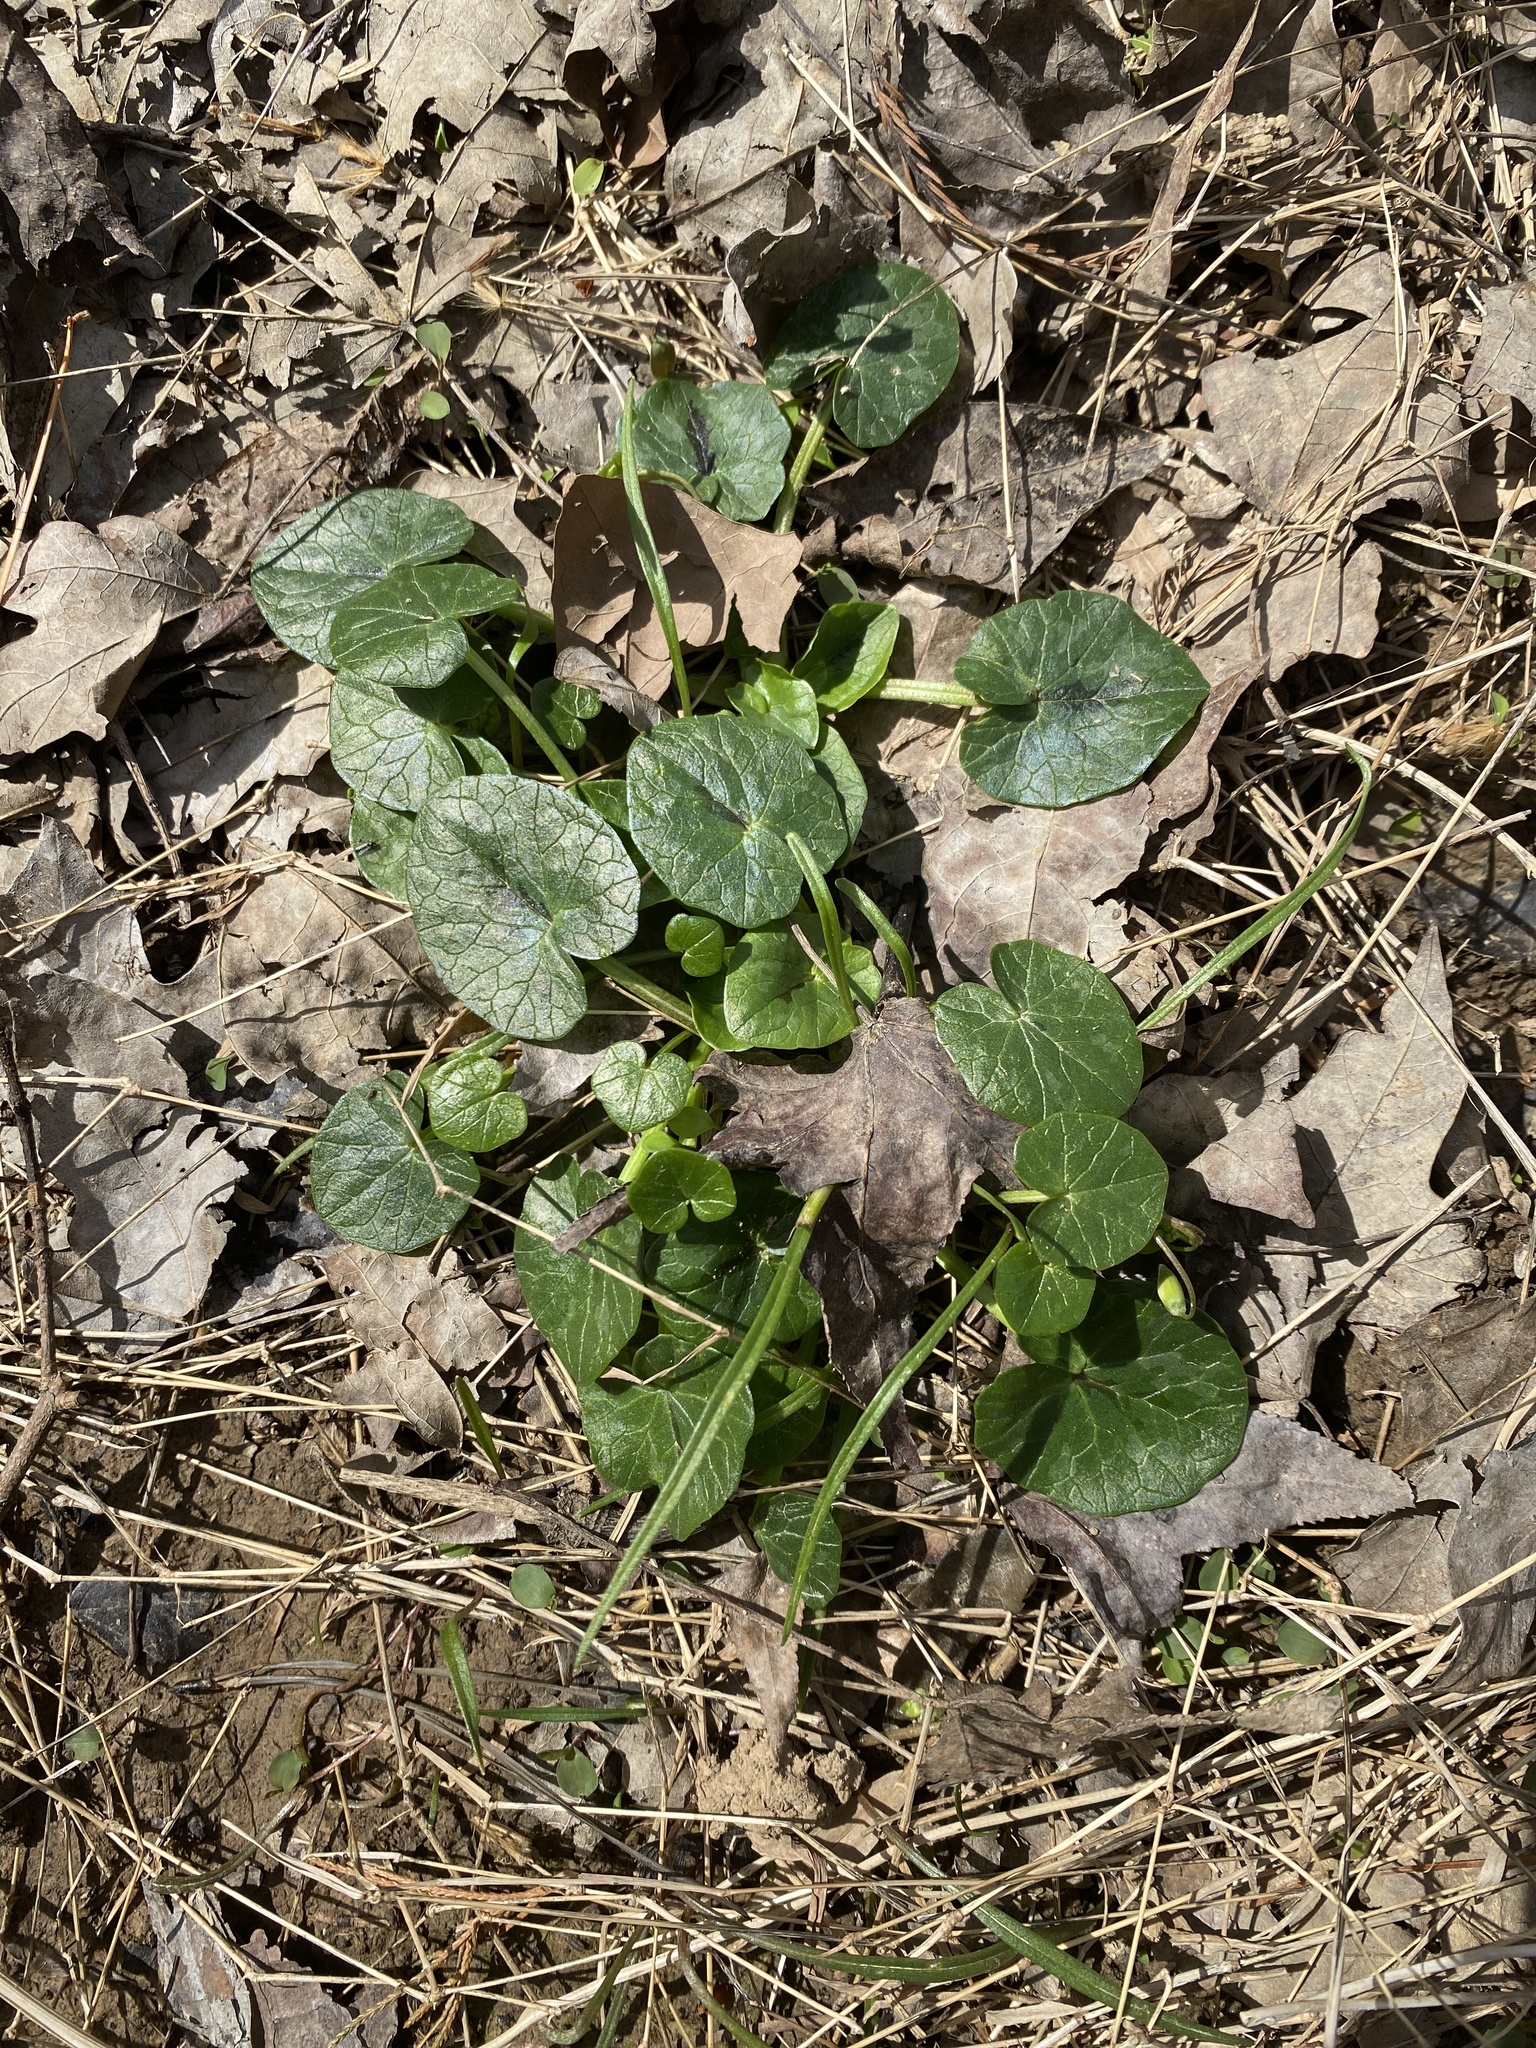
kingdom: Plantae
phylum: Tracheophyta
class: Magnoliopsida
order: Ranunculales
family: Ranunculaceae
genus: Ficaria
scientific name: Ficaria verna
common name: Lesser celandine
